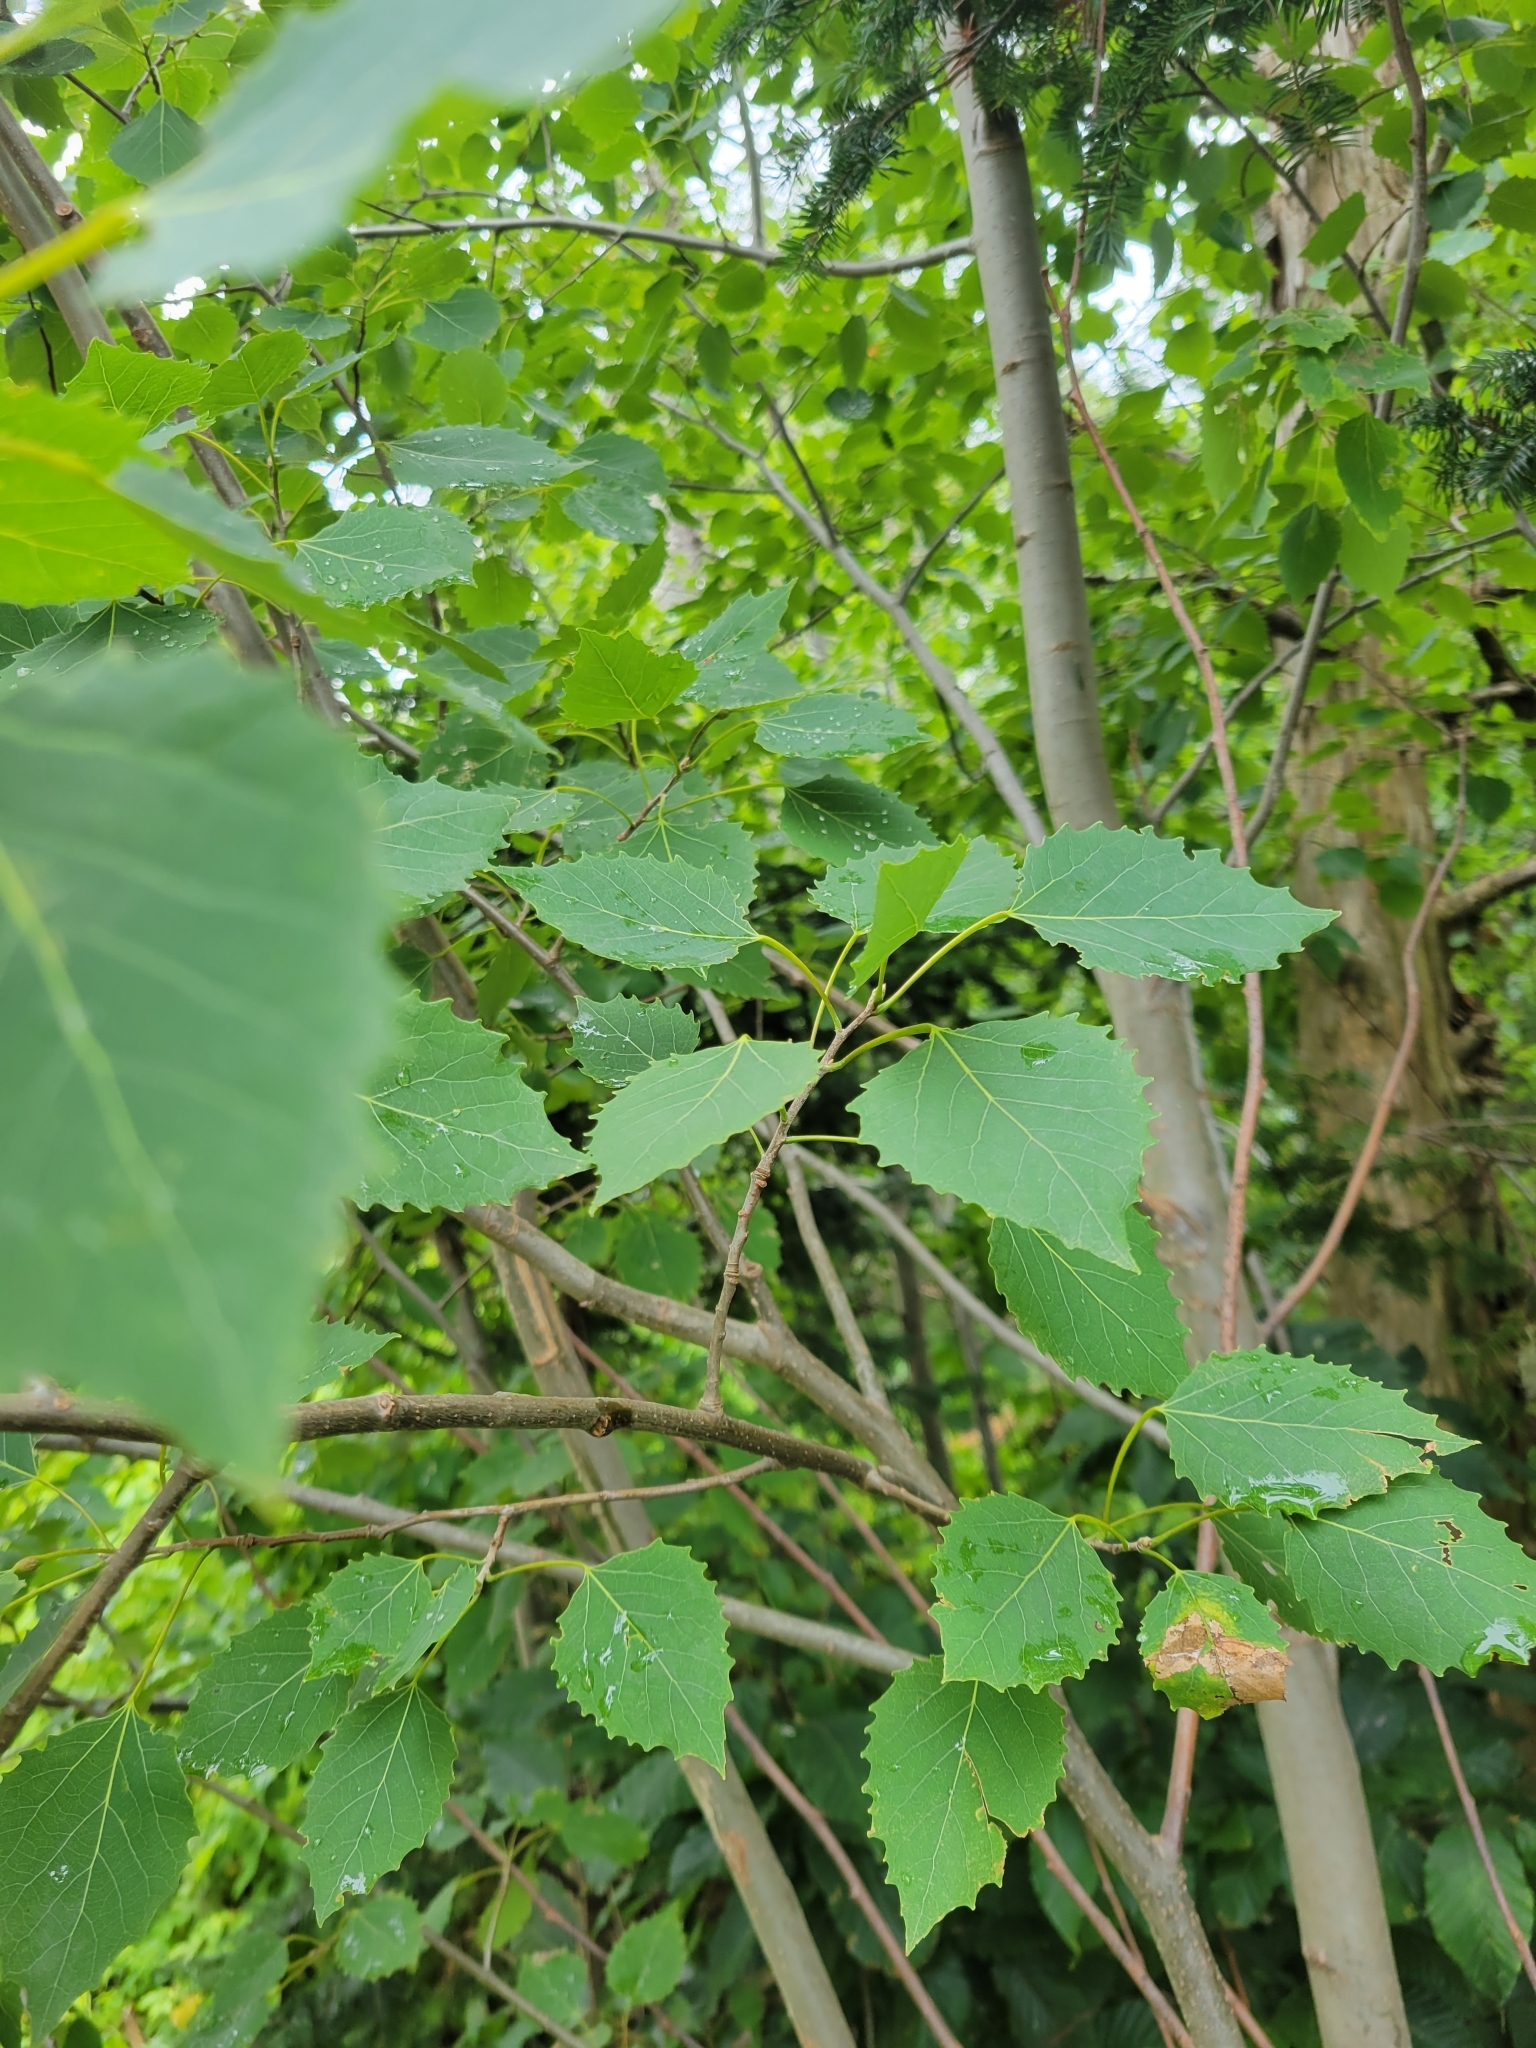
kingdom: Plantae
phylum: Tracheophyta
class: Magnoliopsida
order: Malpighiales
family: Salicaceae
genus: Populus
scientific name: Populus grandidentata
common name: Bigtooth aspen
